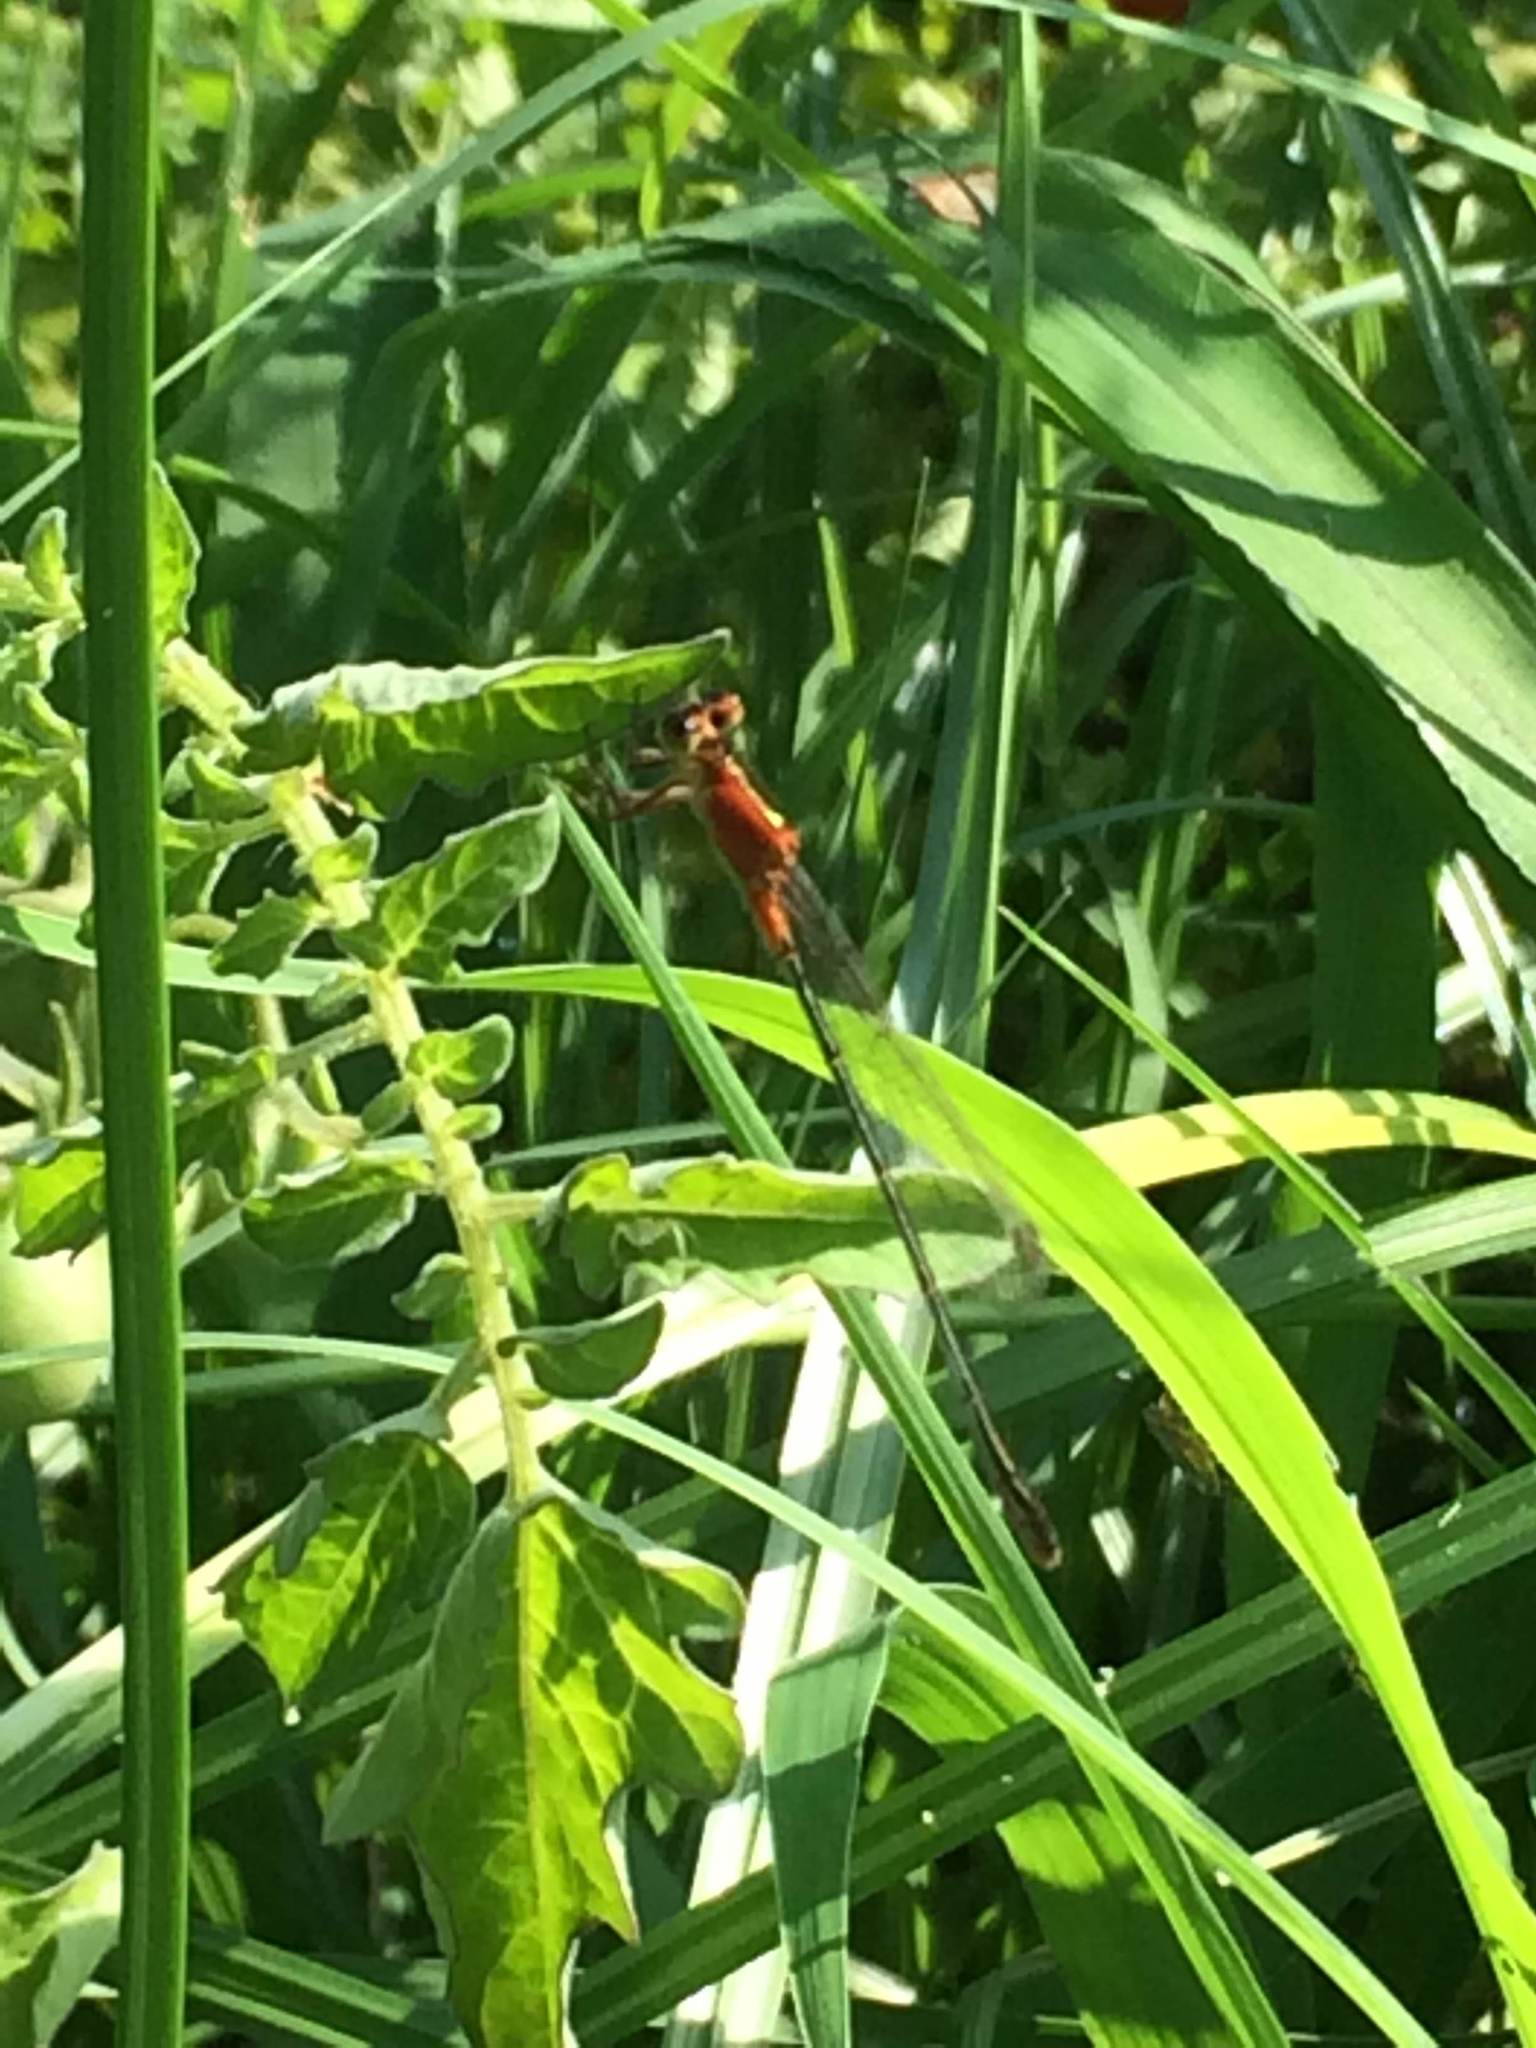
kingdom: Animalia
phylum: Arthropoda
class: Insecta
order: Odonata
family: Coenagrionidae
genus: Ischnura
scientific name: Ischnura ramburii
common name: Rambur's forktail
